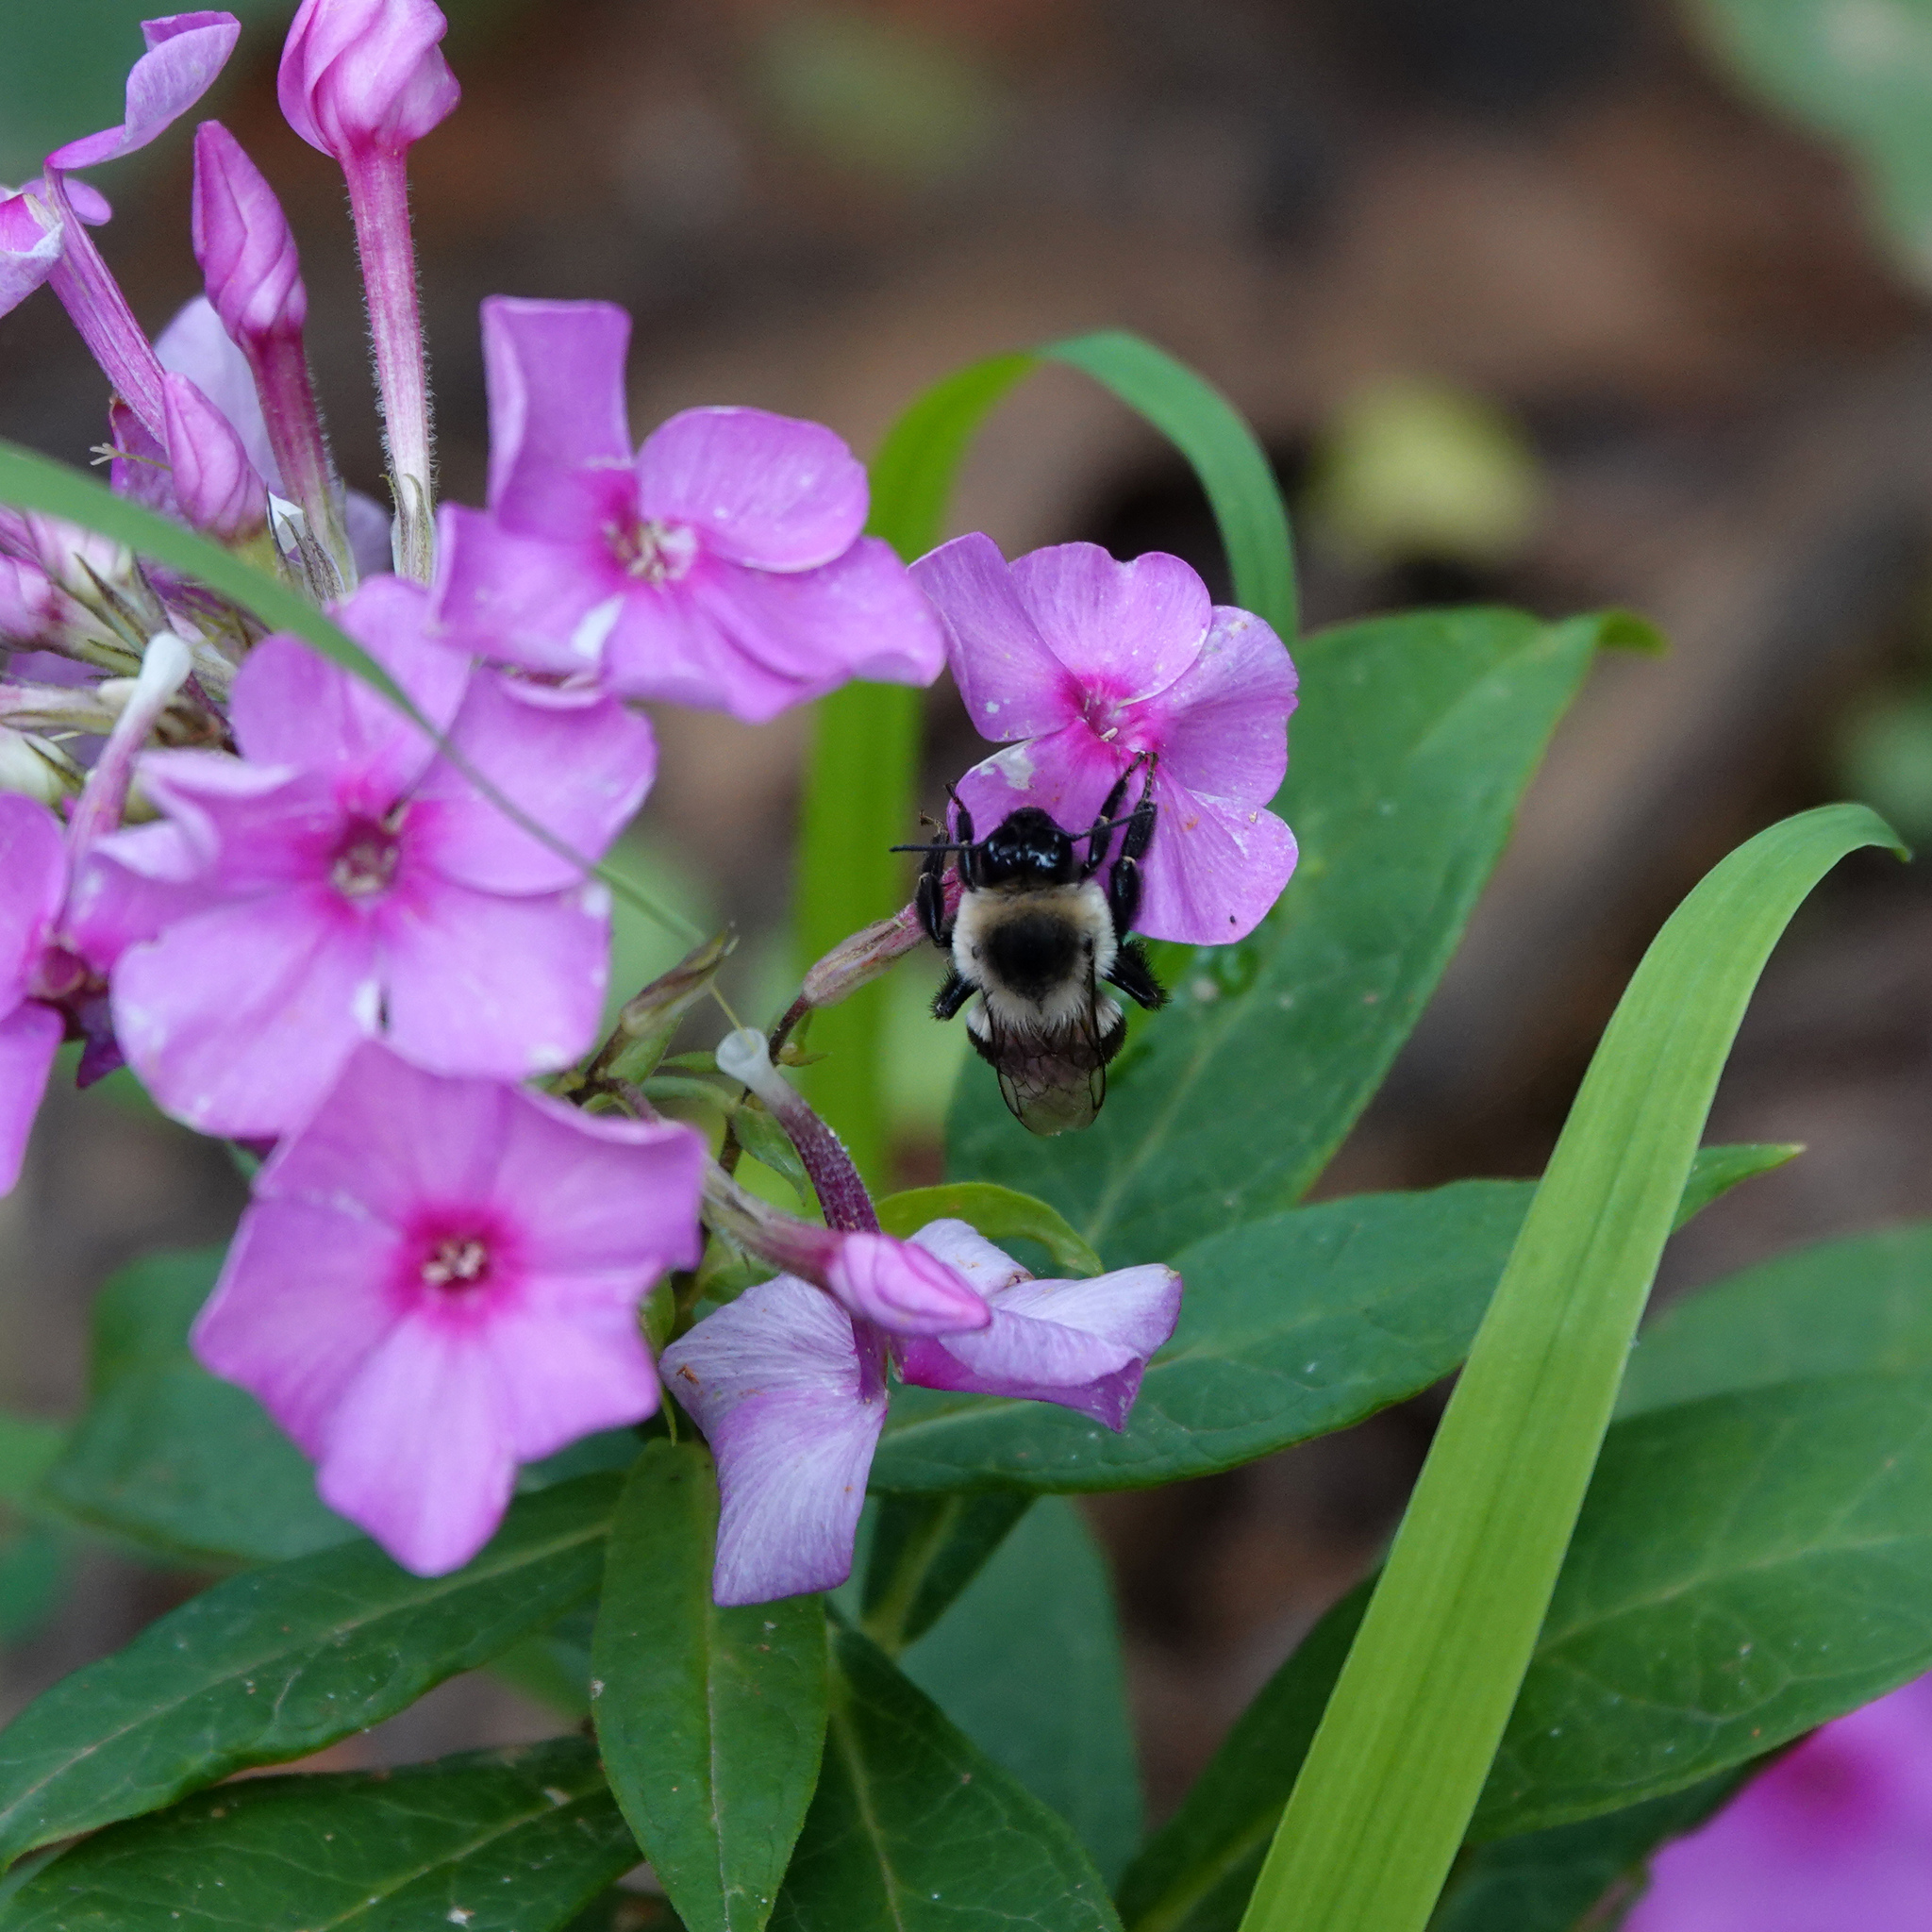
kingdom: Animalia
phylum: Arthropoda
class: Insecta
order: Hymenoptera
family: Apidae
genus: Bombus
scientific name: Bombus impatiens
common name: Common eastern bumble bee
